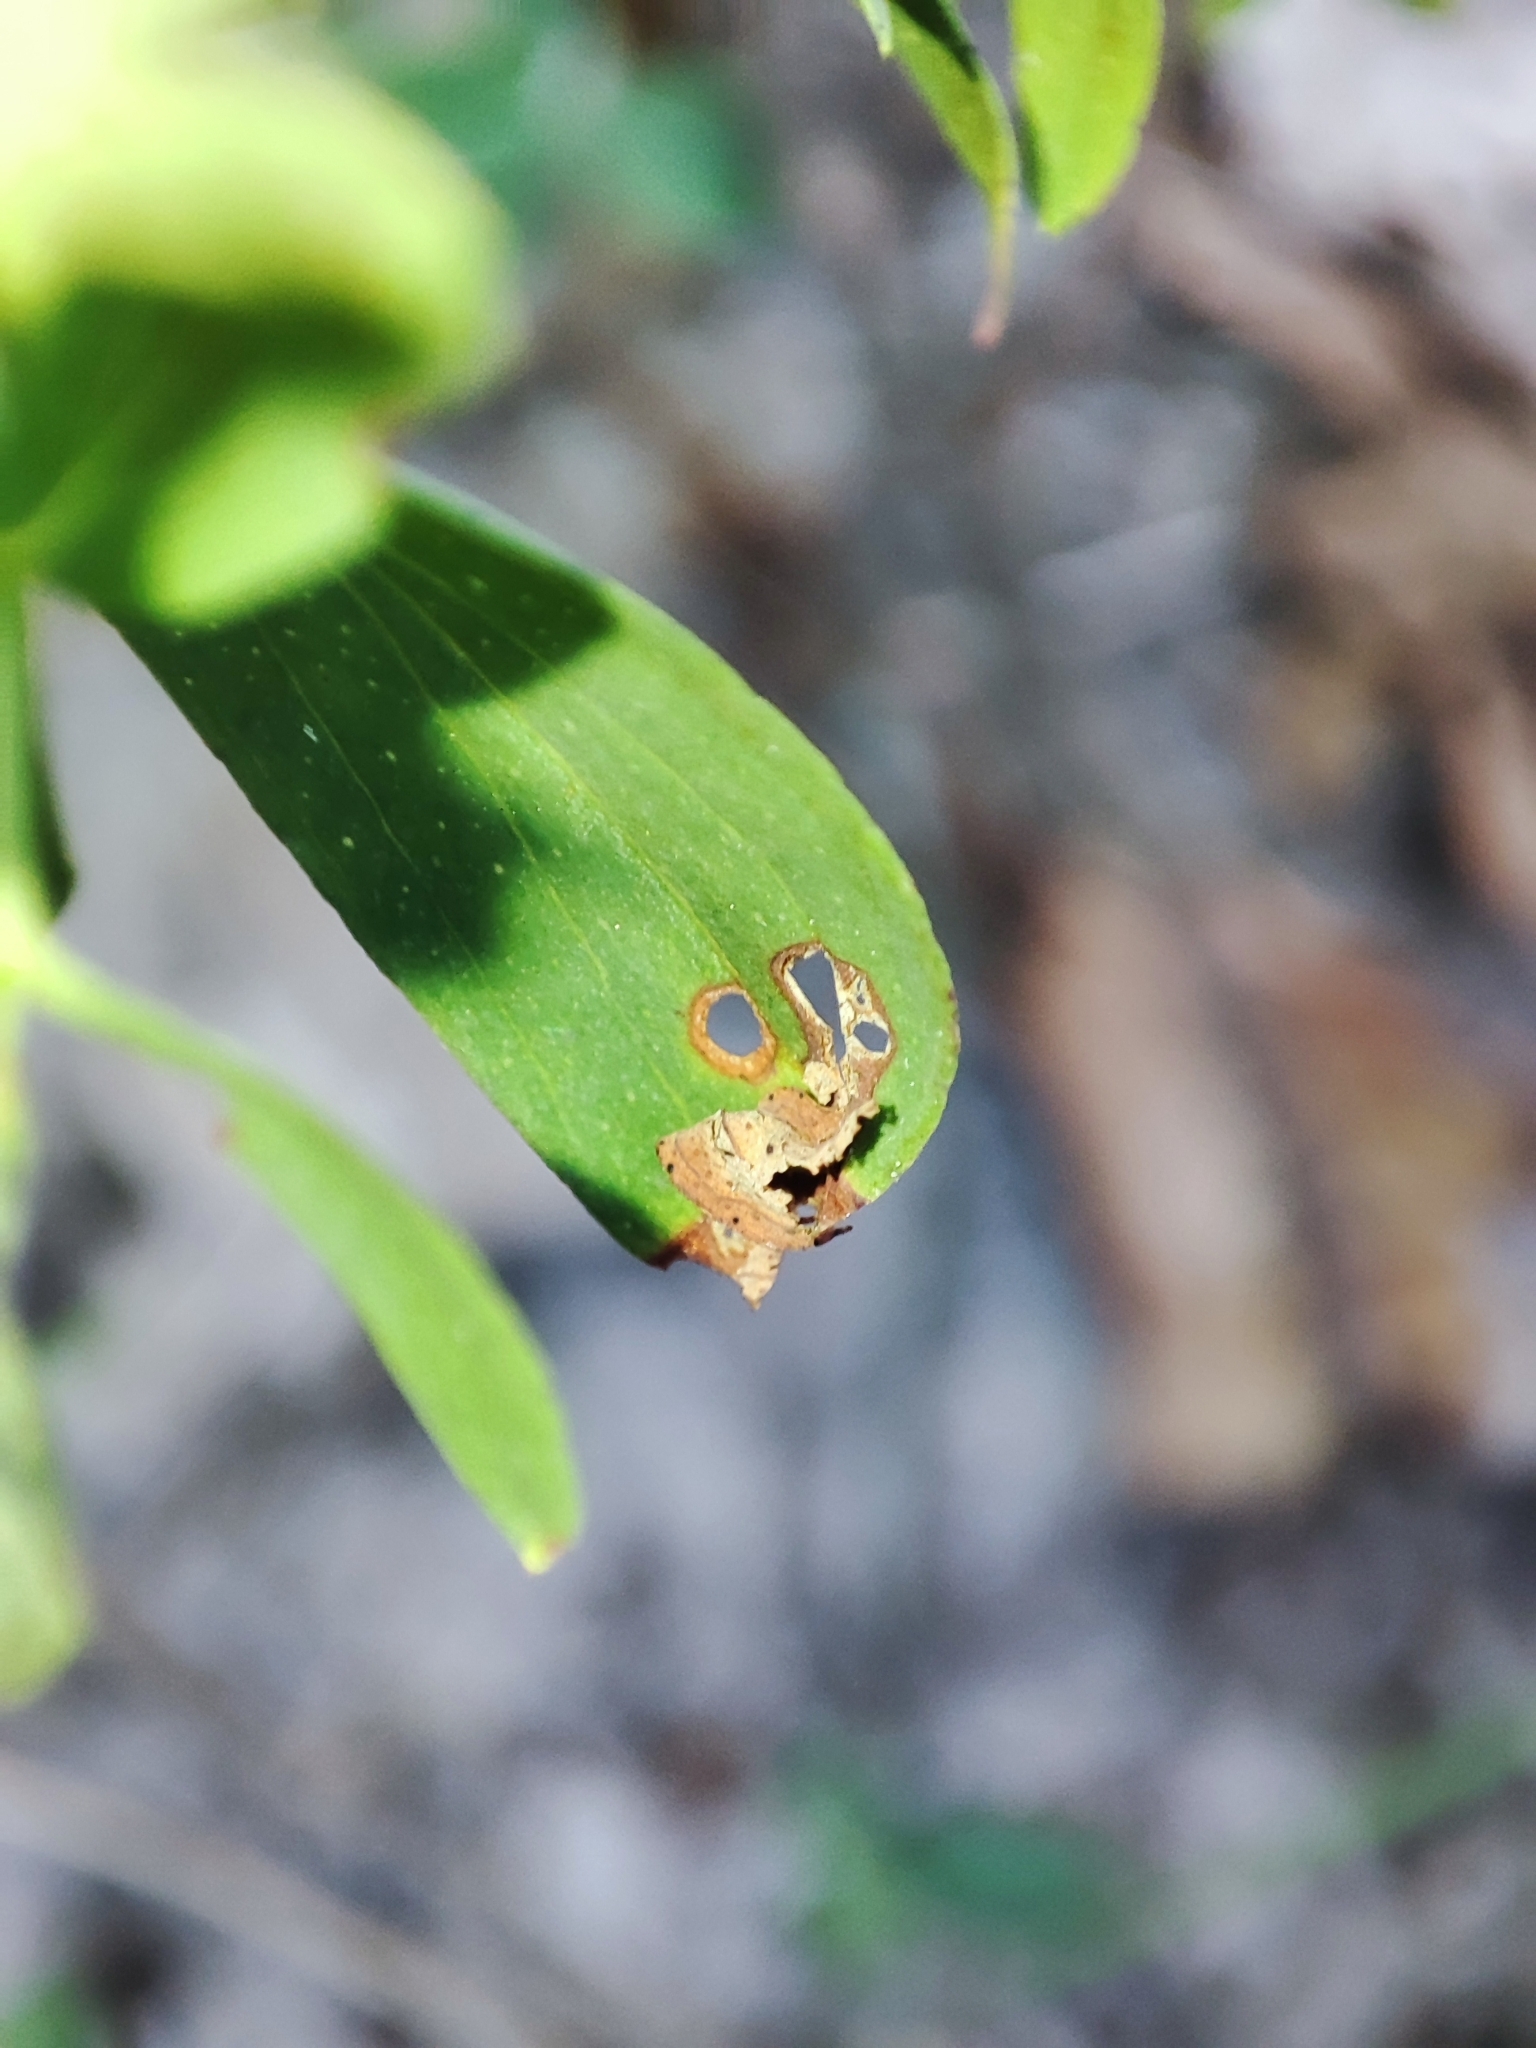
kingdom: Plantae
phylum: Tracheophyta
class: Magnoliopsida
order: Malpighiales
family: Hypericaceae
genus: Hypericum
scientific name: Hypericum perforatum
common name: Common st. johnswort
